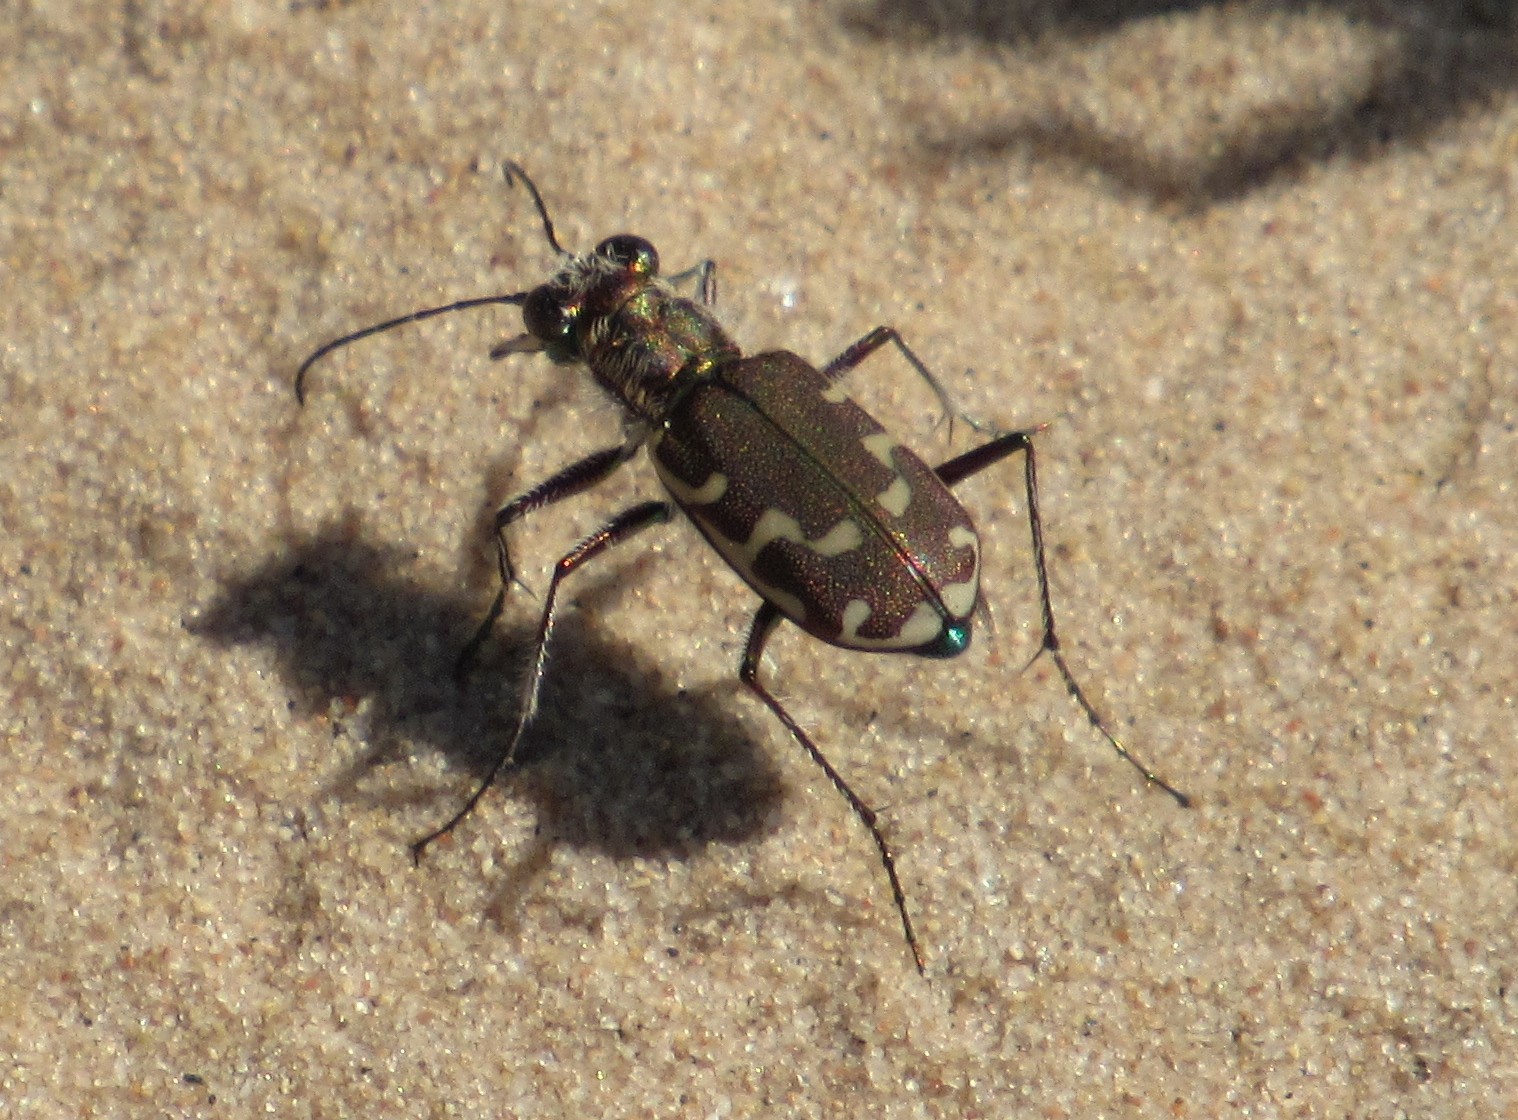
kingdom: Animalia
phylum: Arthropoda
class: Insecta
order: Coleoptera
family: Carabidae
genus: Cicindela
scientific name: Cicindela repanda
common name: Bronzed tiger beetle
